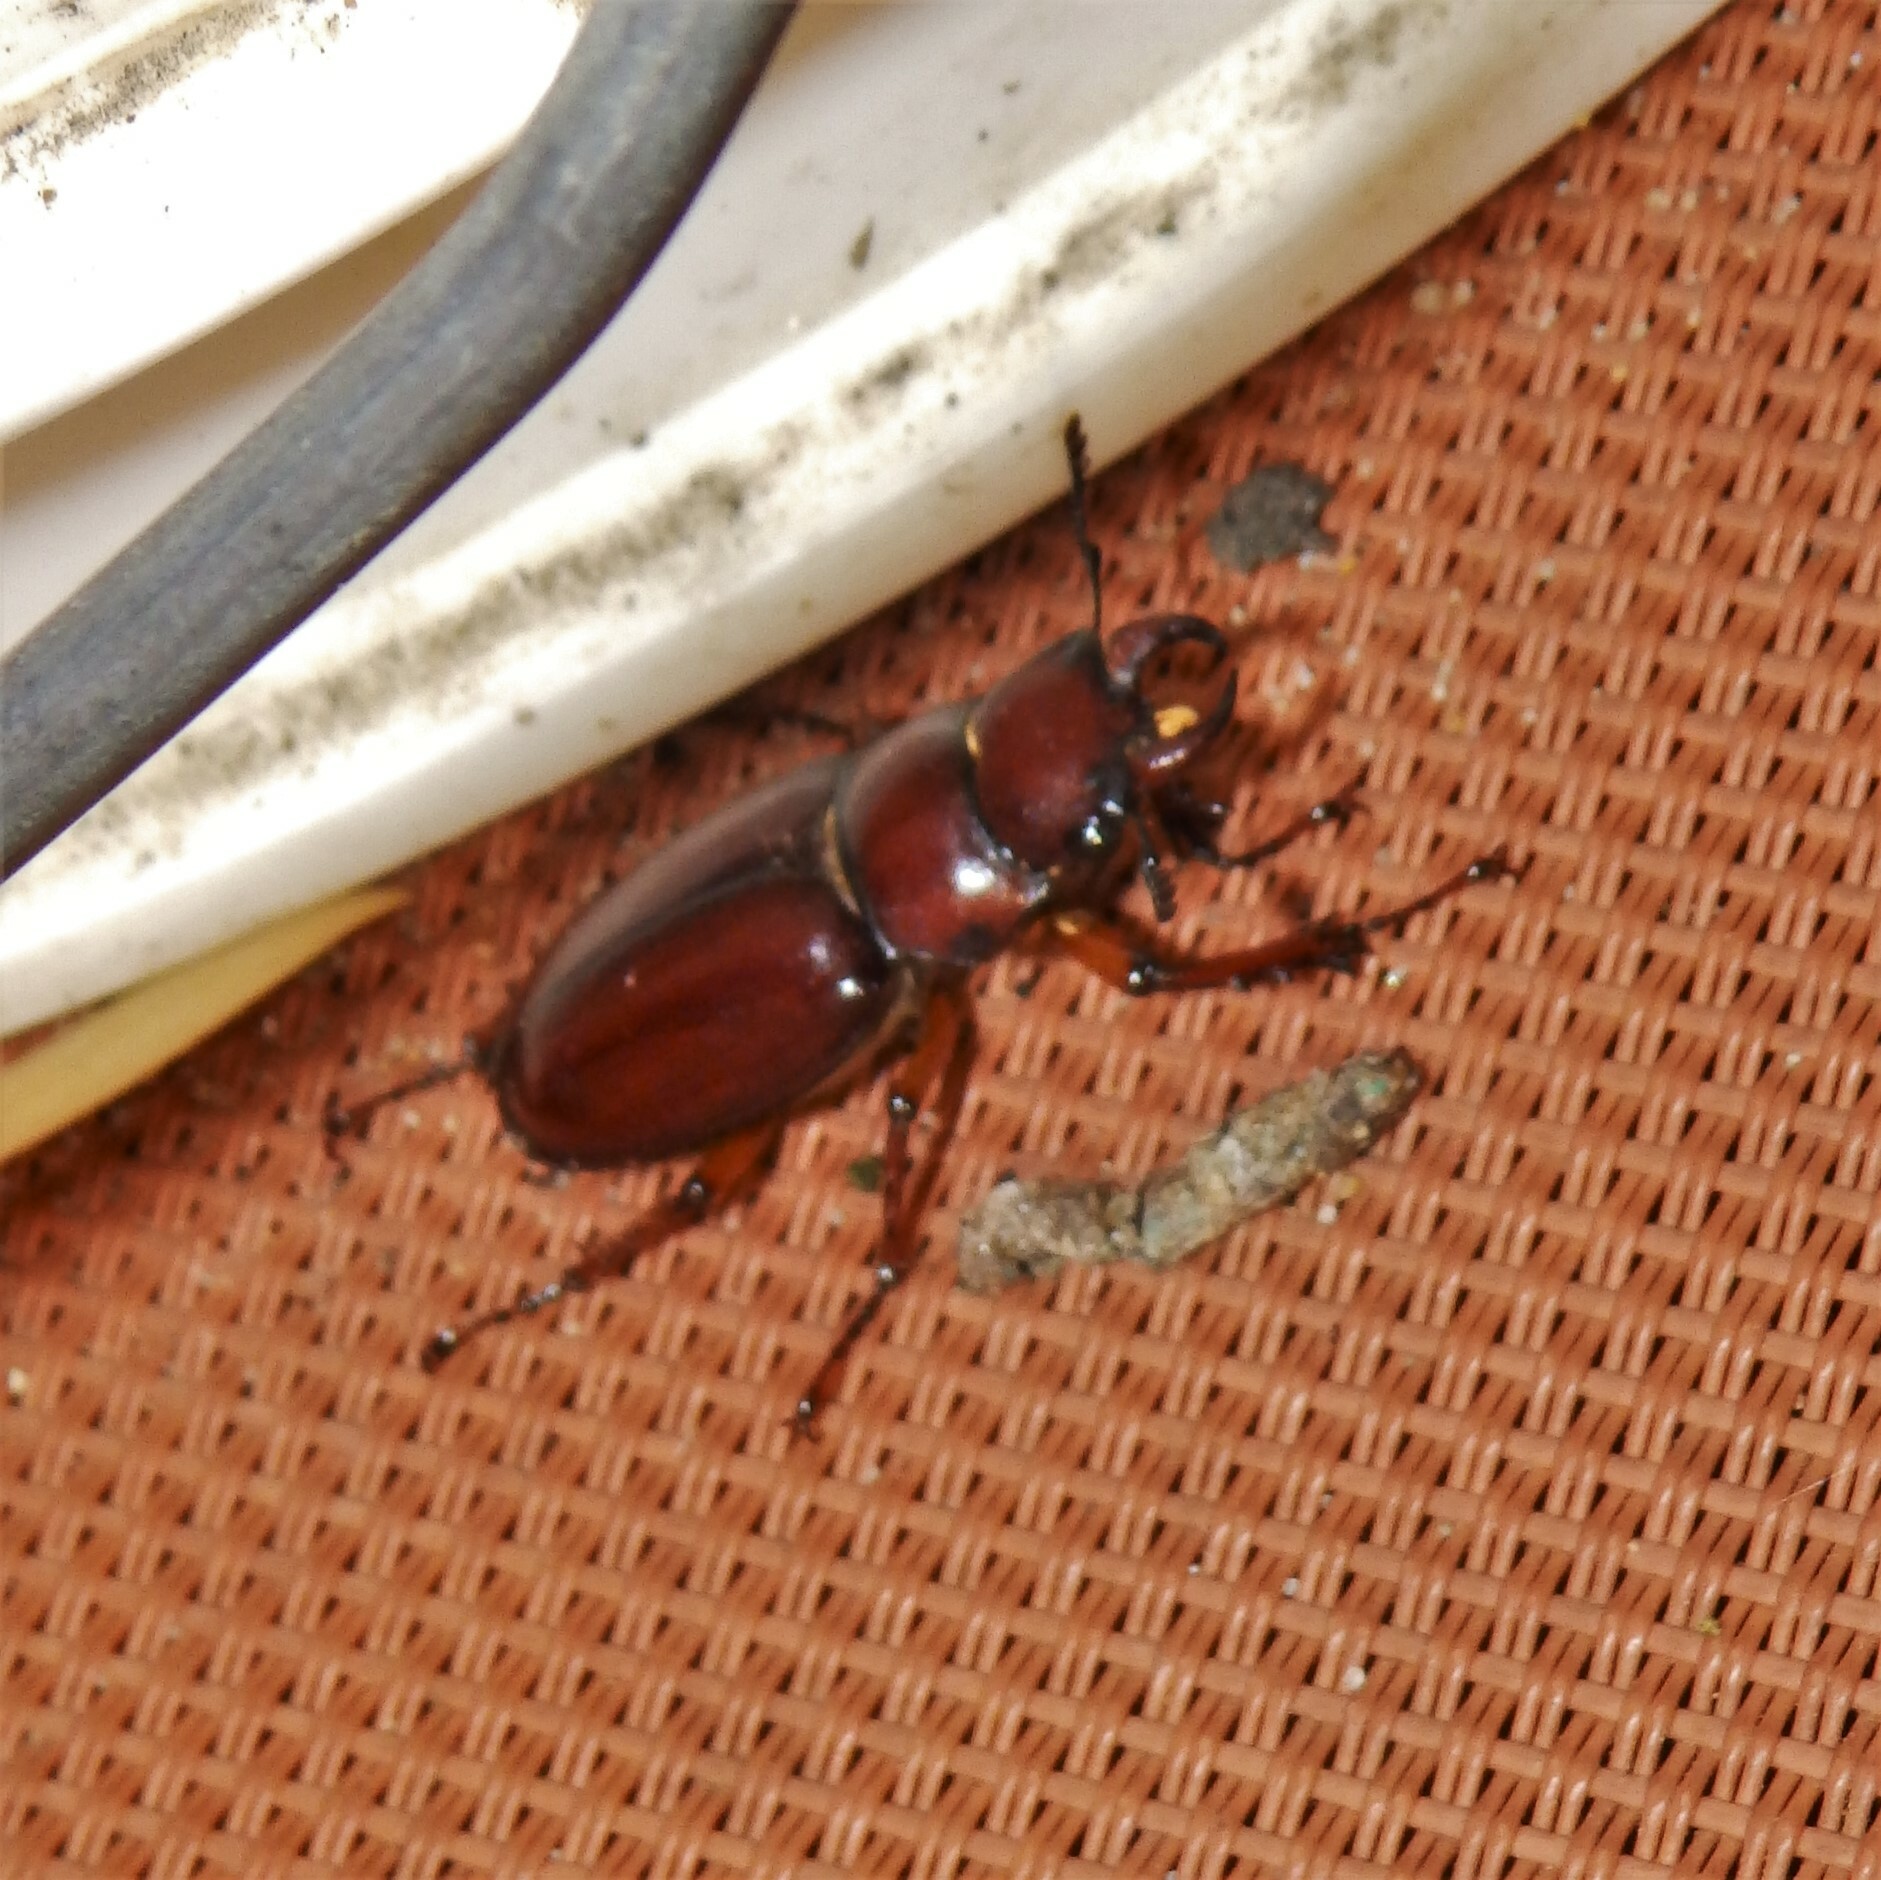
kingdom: Animalia
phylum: Arthropoda
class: Insecta
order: Coleoptera
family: Lucanidae
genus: Lucanus
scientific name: Lucanus capreolus
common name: Stag beetle
